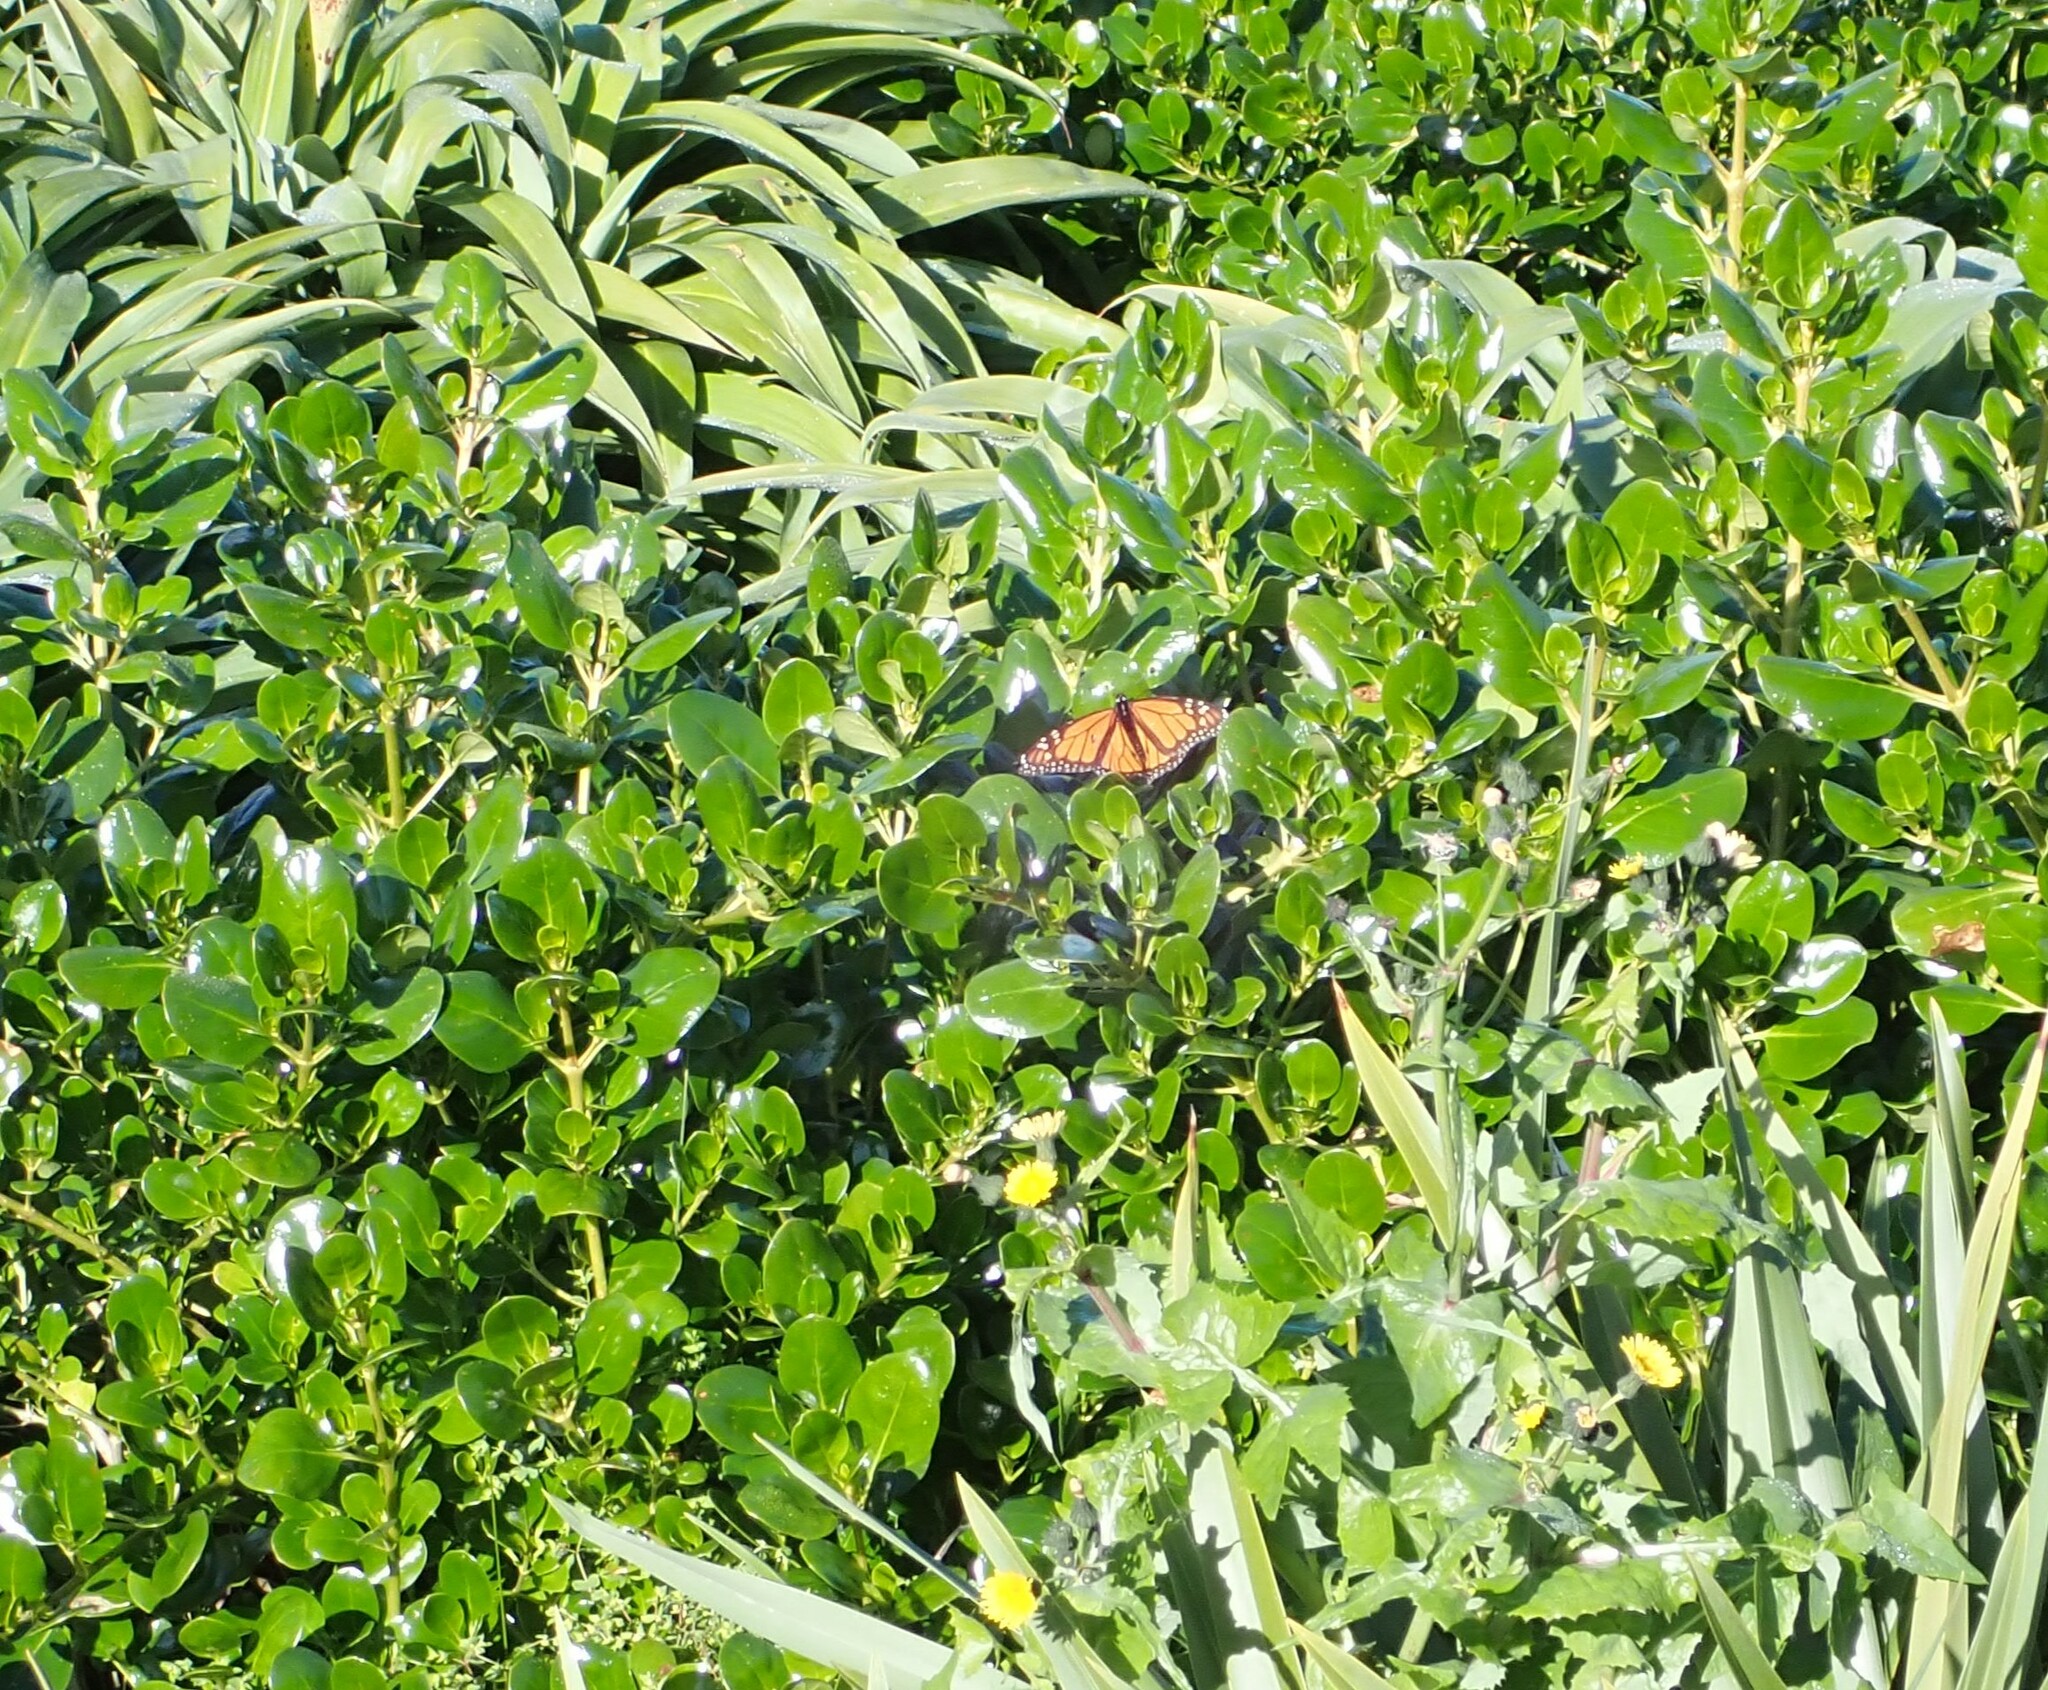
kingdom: Animalia
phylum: Arthropoda
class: Insecta
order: Lepidoptera
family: Nymphalidae
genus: Danaus
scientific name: Danaus plexippus
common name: Monarch
